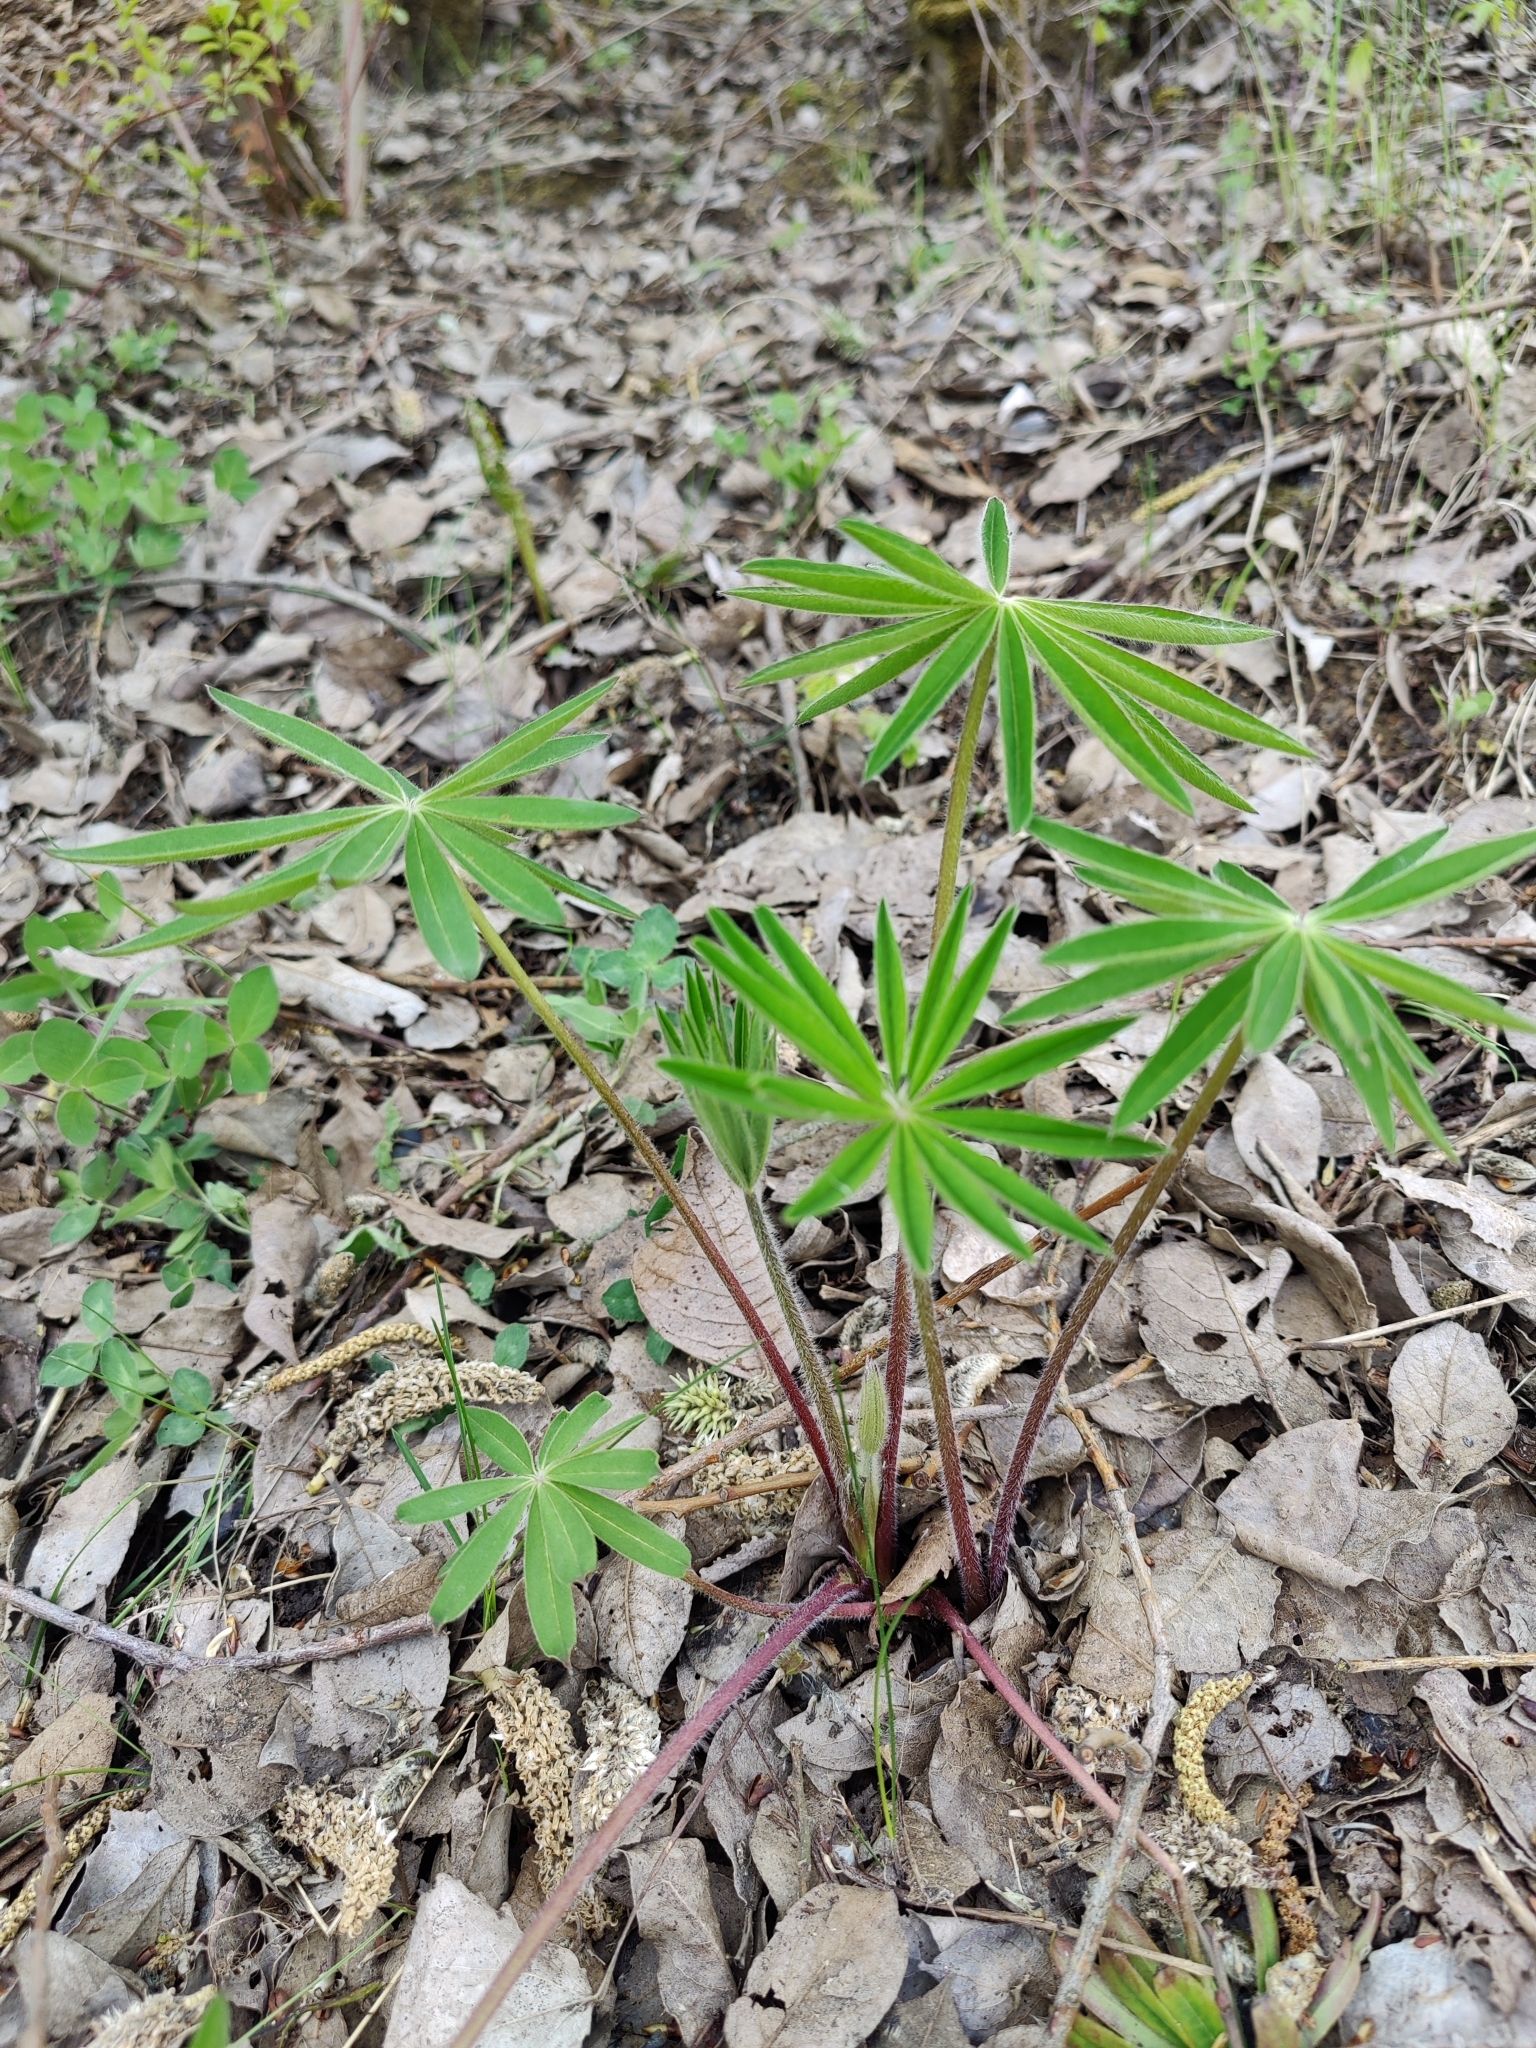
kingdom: Plantae
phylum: Tracheophyta
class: Magnoliopsida
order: Fabales
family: Fabaceae
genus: Lupinus
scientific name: Lupinus polyphyllus
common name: Garden lupin
